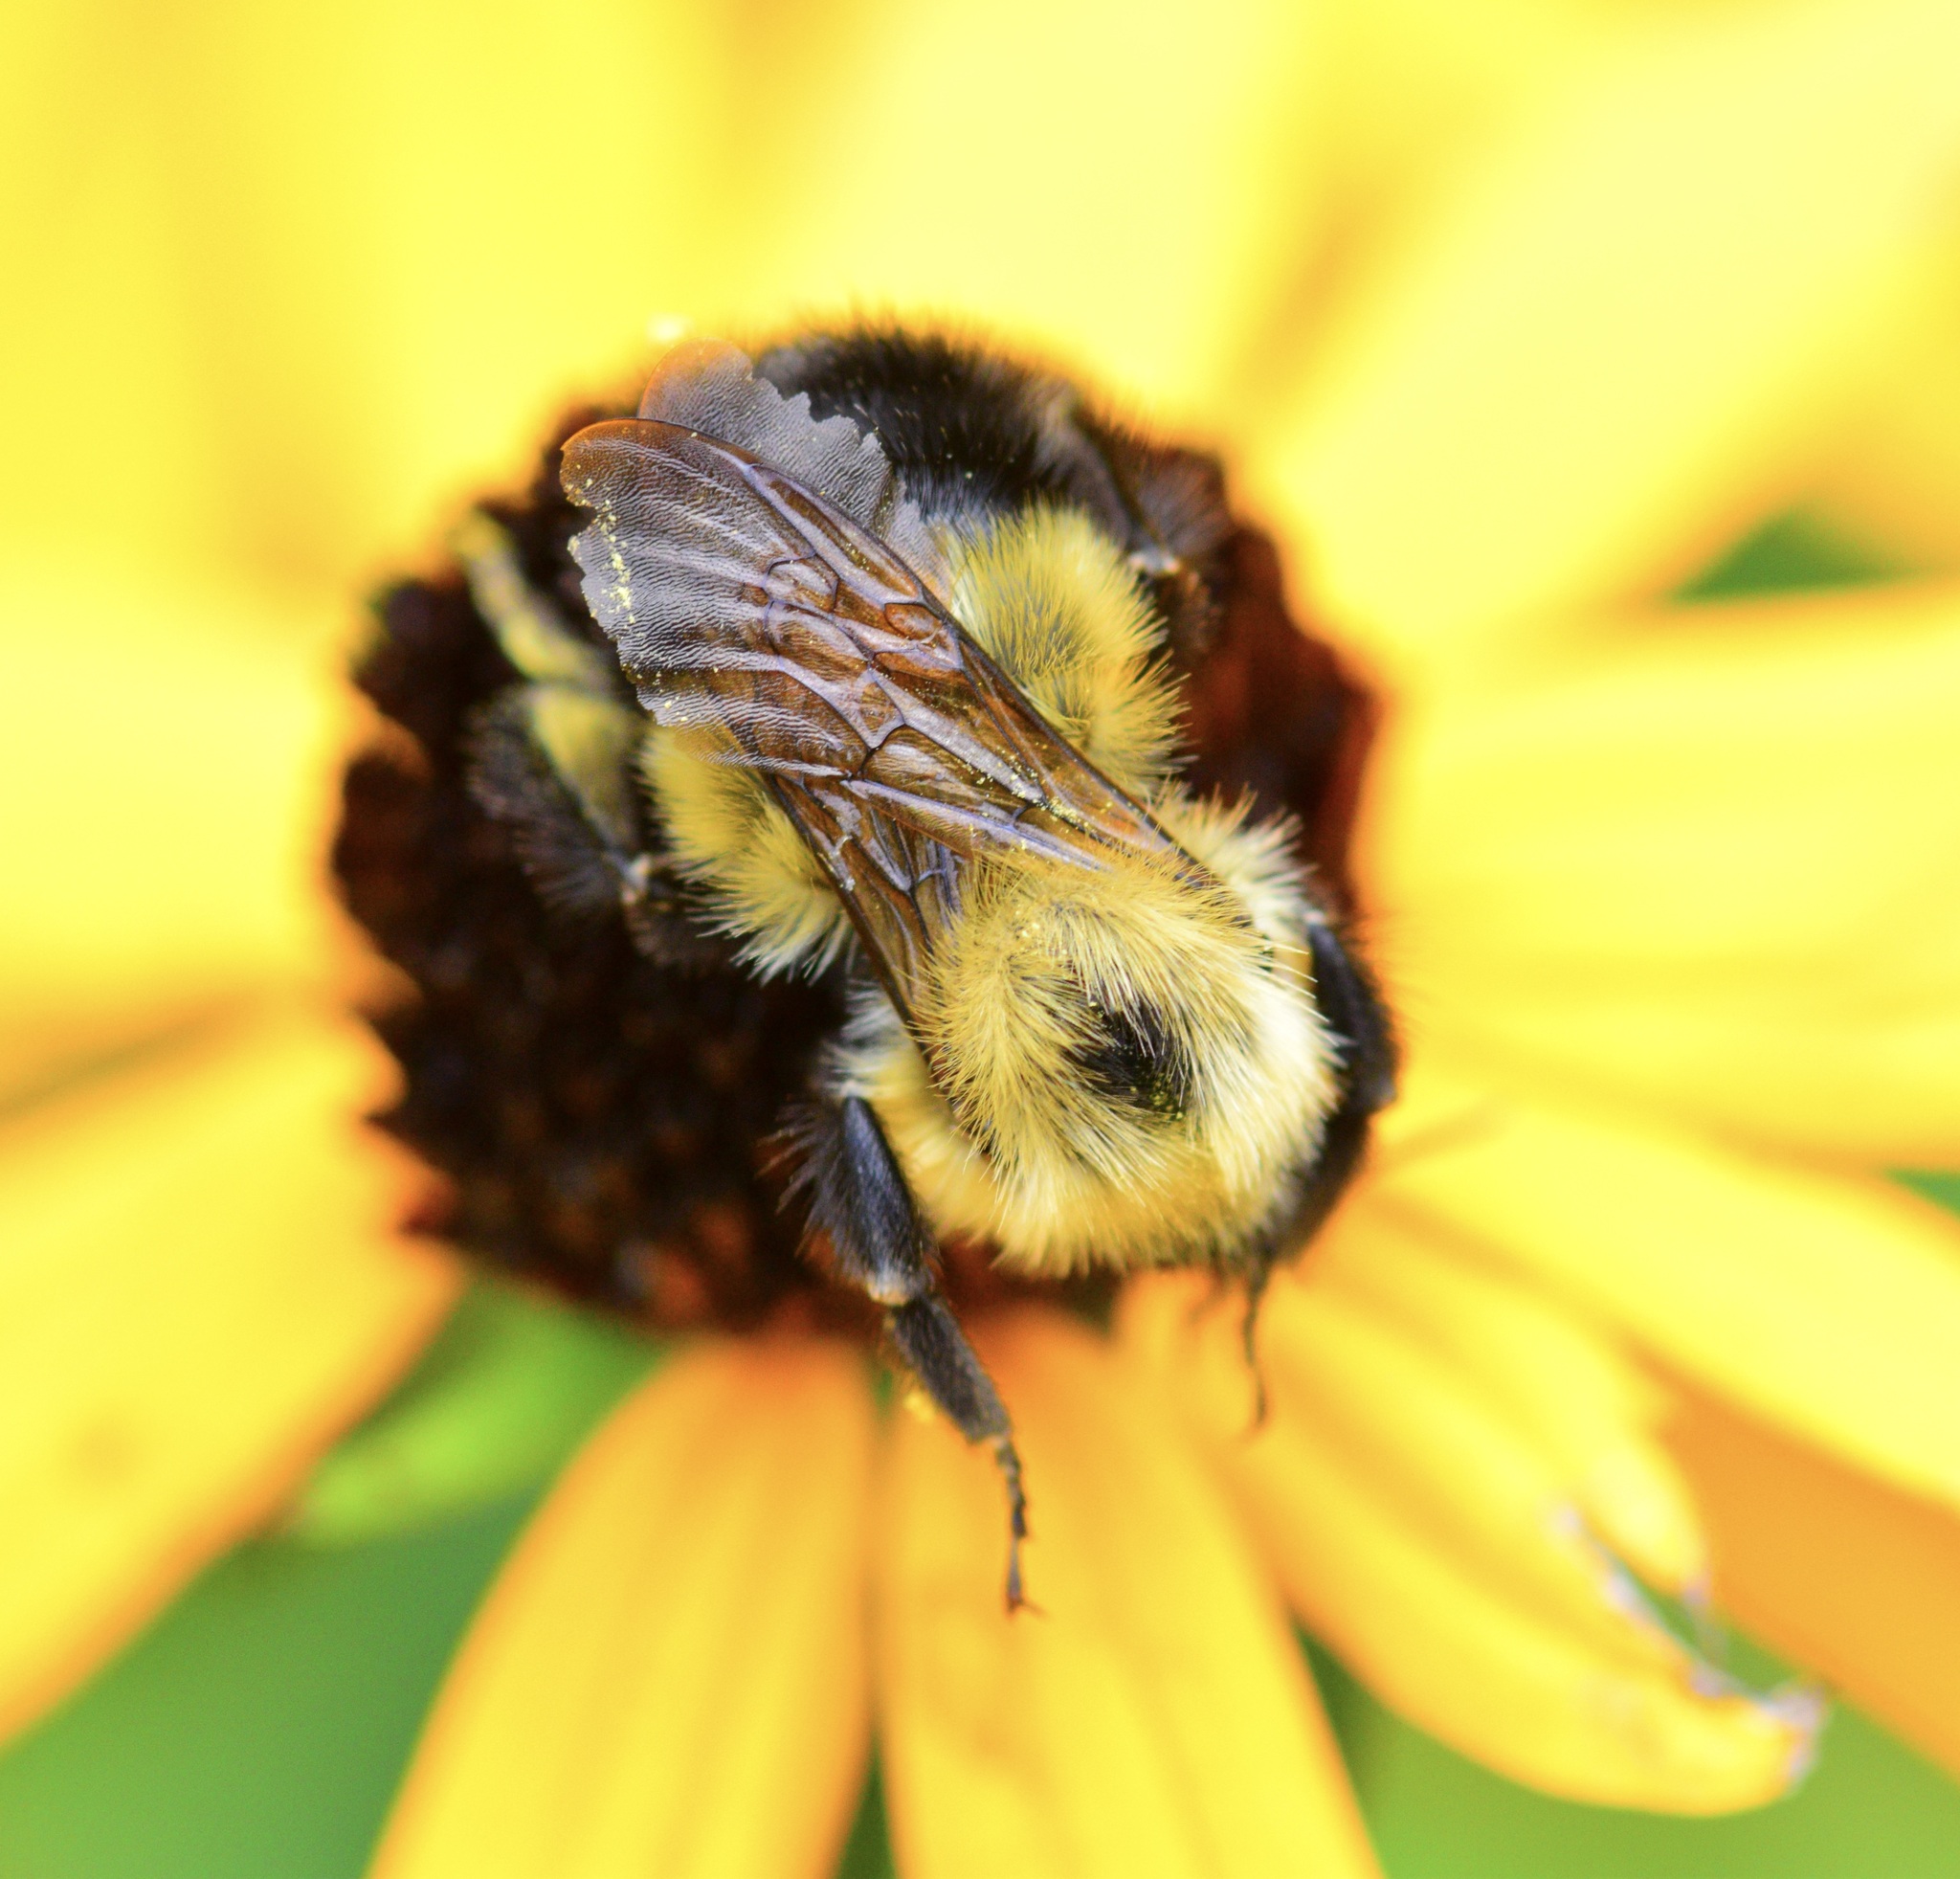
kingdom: Animalia
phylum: Arthropoda
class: Insecta
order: Hymenoptera
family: Apidae
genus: Bombus
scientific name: Bombus vagans
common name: Half-black bumble bee
